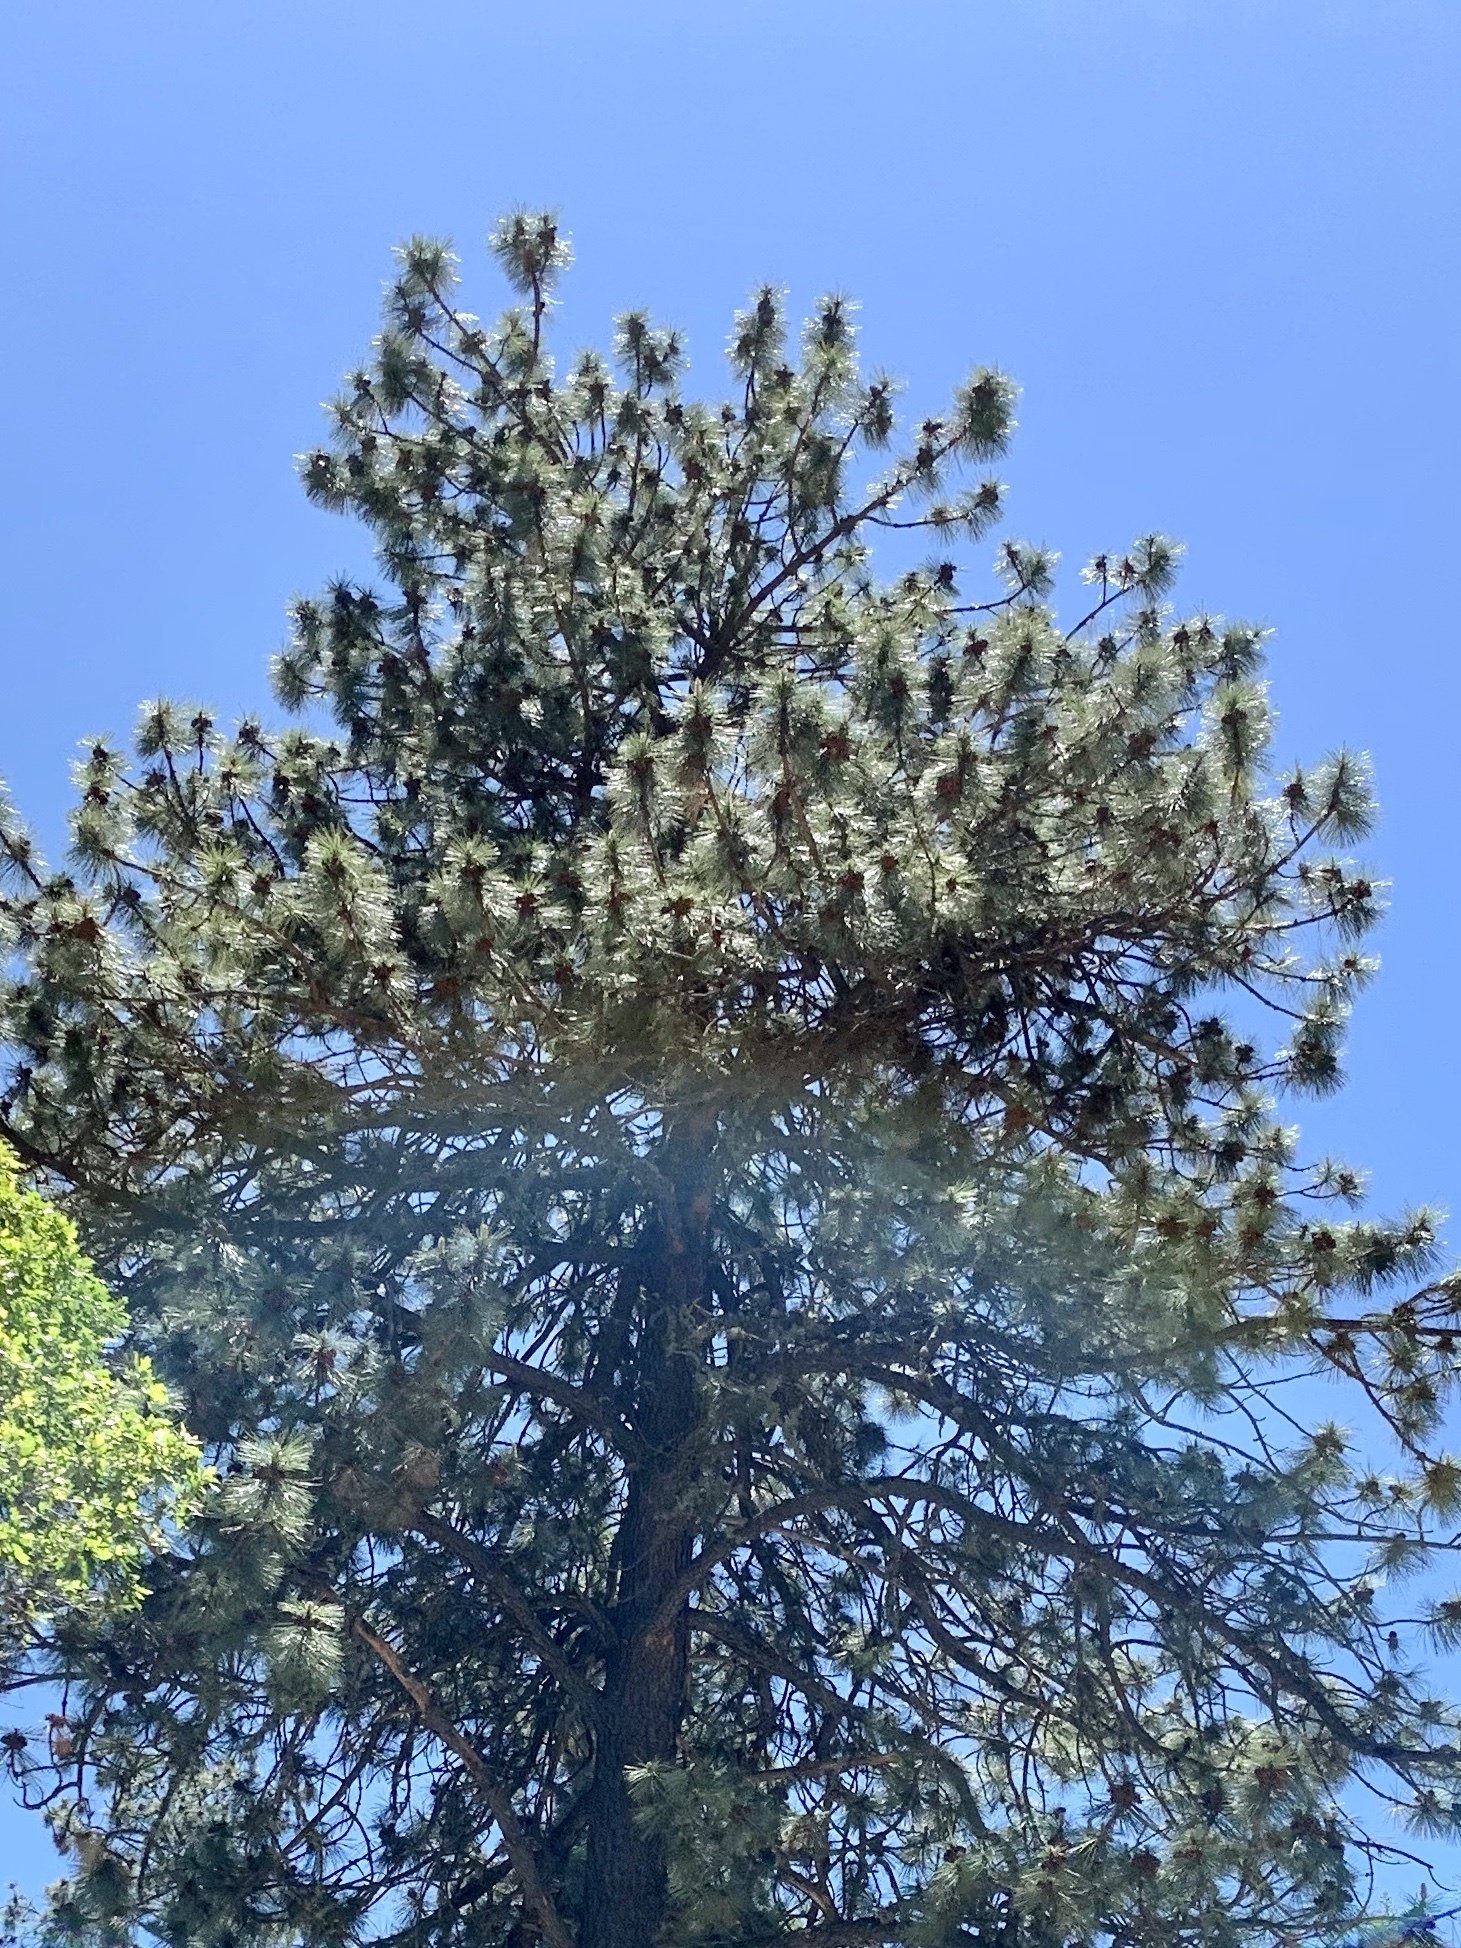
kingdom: Plantae
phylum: Tracheophyta
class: Pinopsida
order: Pinales
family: Pinaceae
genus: Pinus
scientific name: Pinus ponderosa
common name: Western yellow-pine
